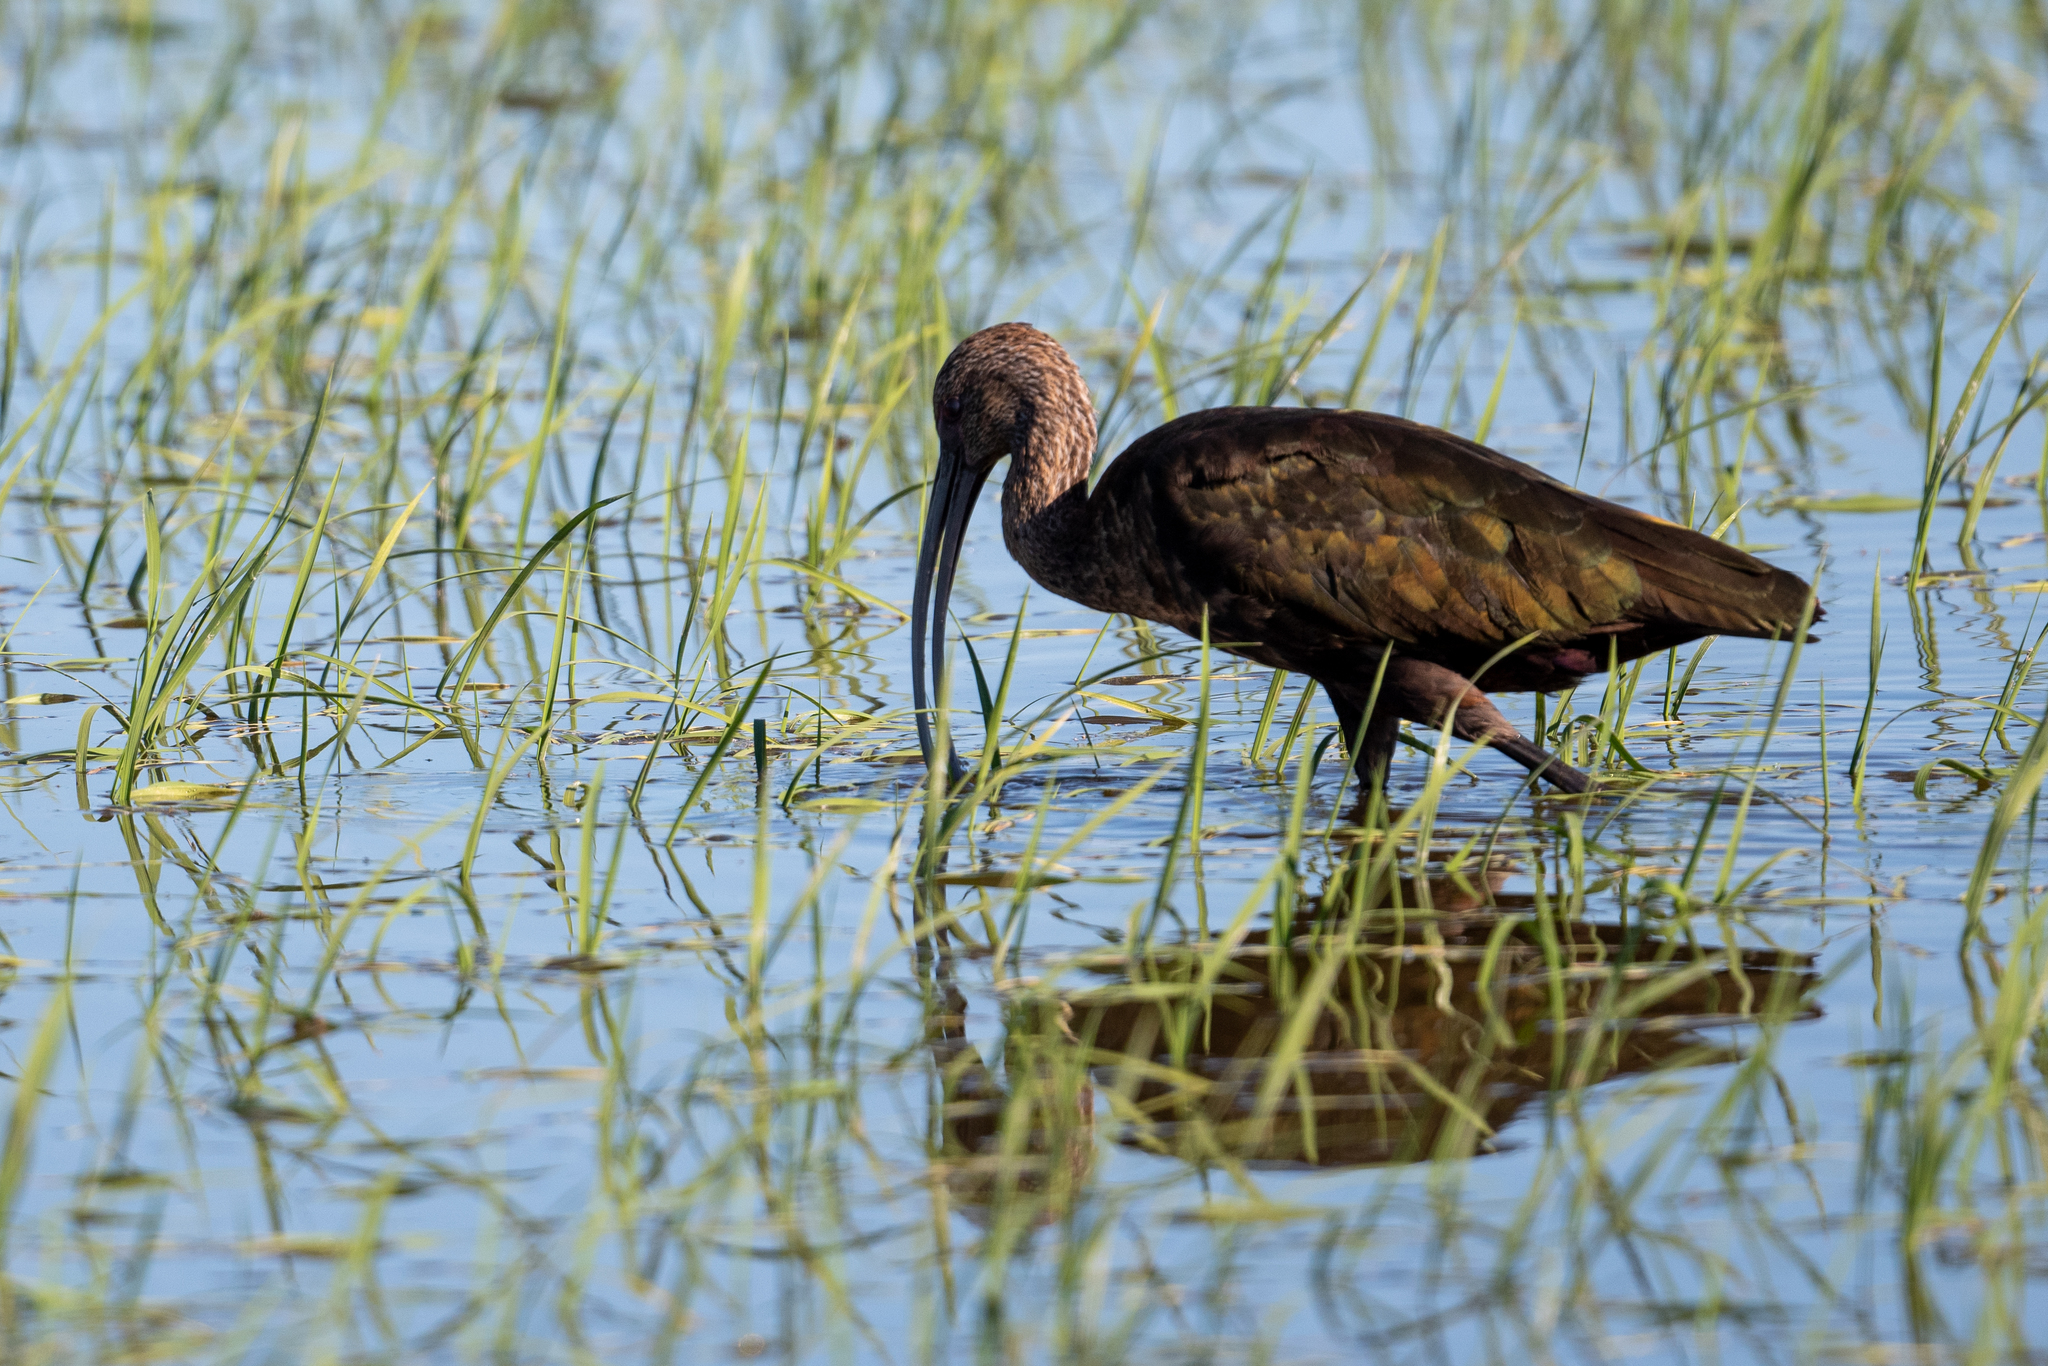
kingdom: Animalia
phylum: Chordata
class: Aves
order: Pelecaniformes
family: Threskiornithidae
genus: Plegadis
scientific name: Plegadis chihi
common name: White-faced ibis
